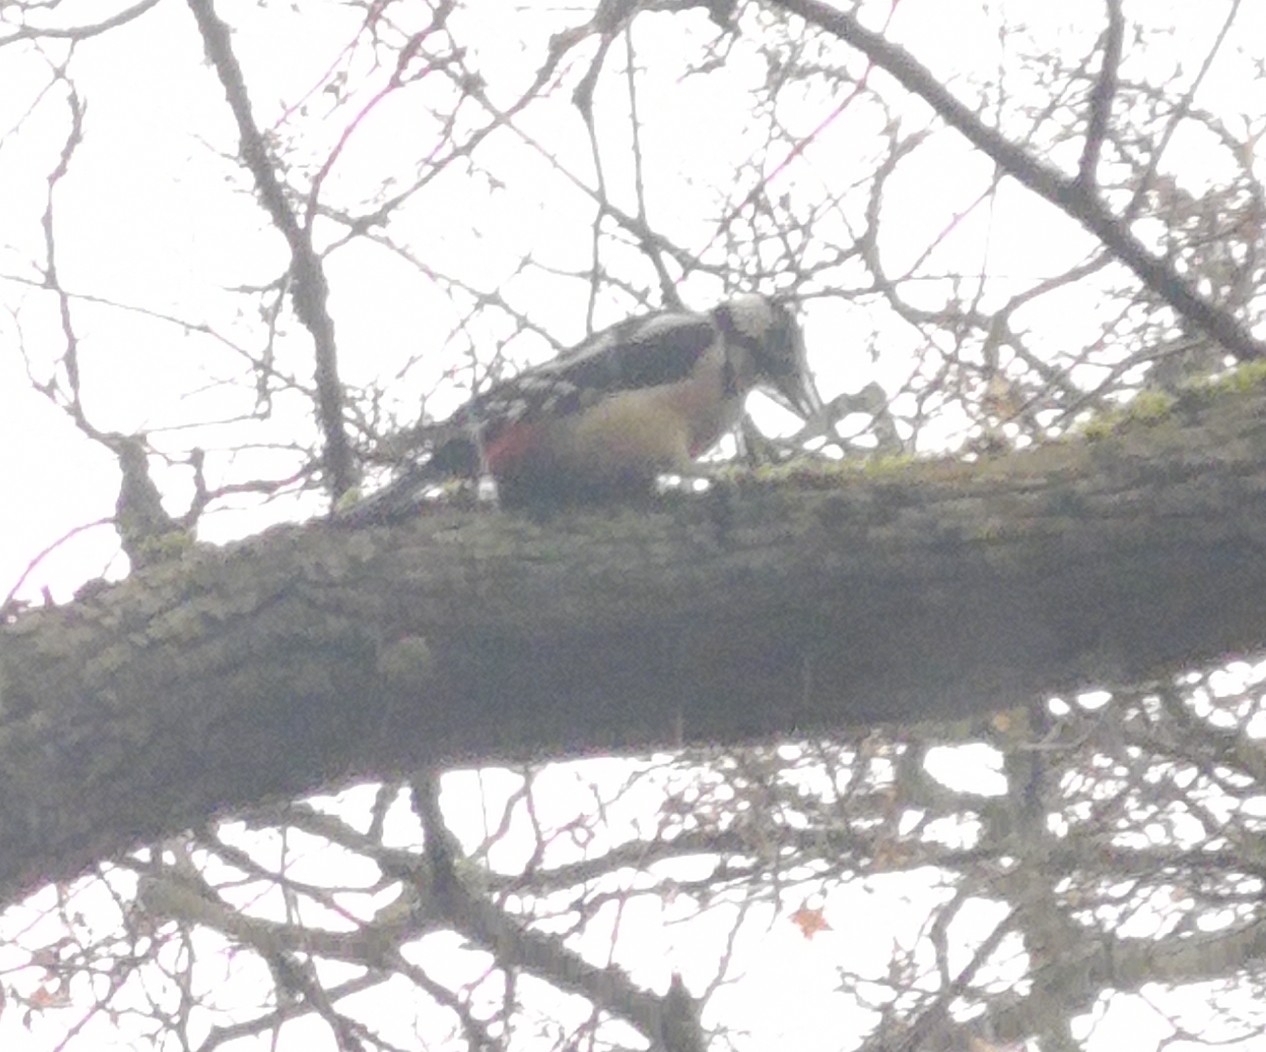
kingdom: Animalia
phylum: Chordata
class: Aves
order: Piciformes
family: Picidae
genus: Dendrocopos
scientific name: Dendrocopos major
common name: Great spotted woodpecker
